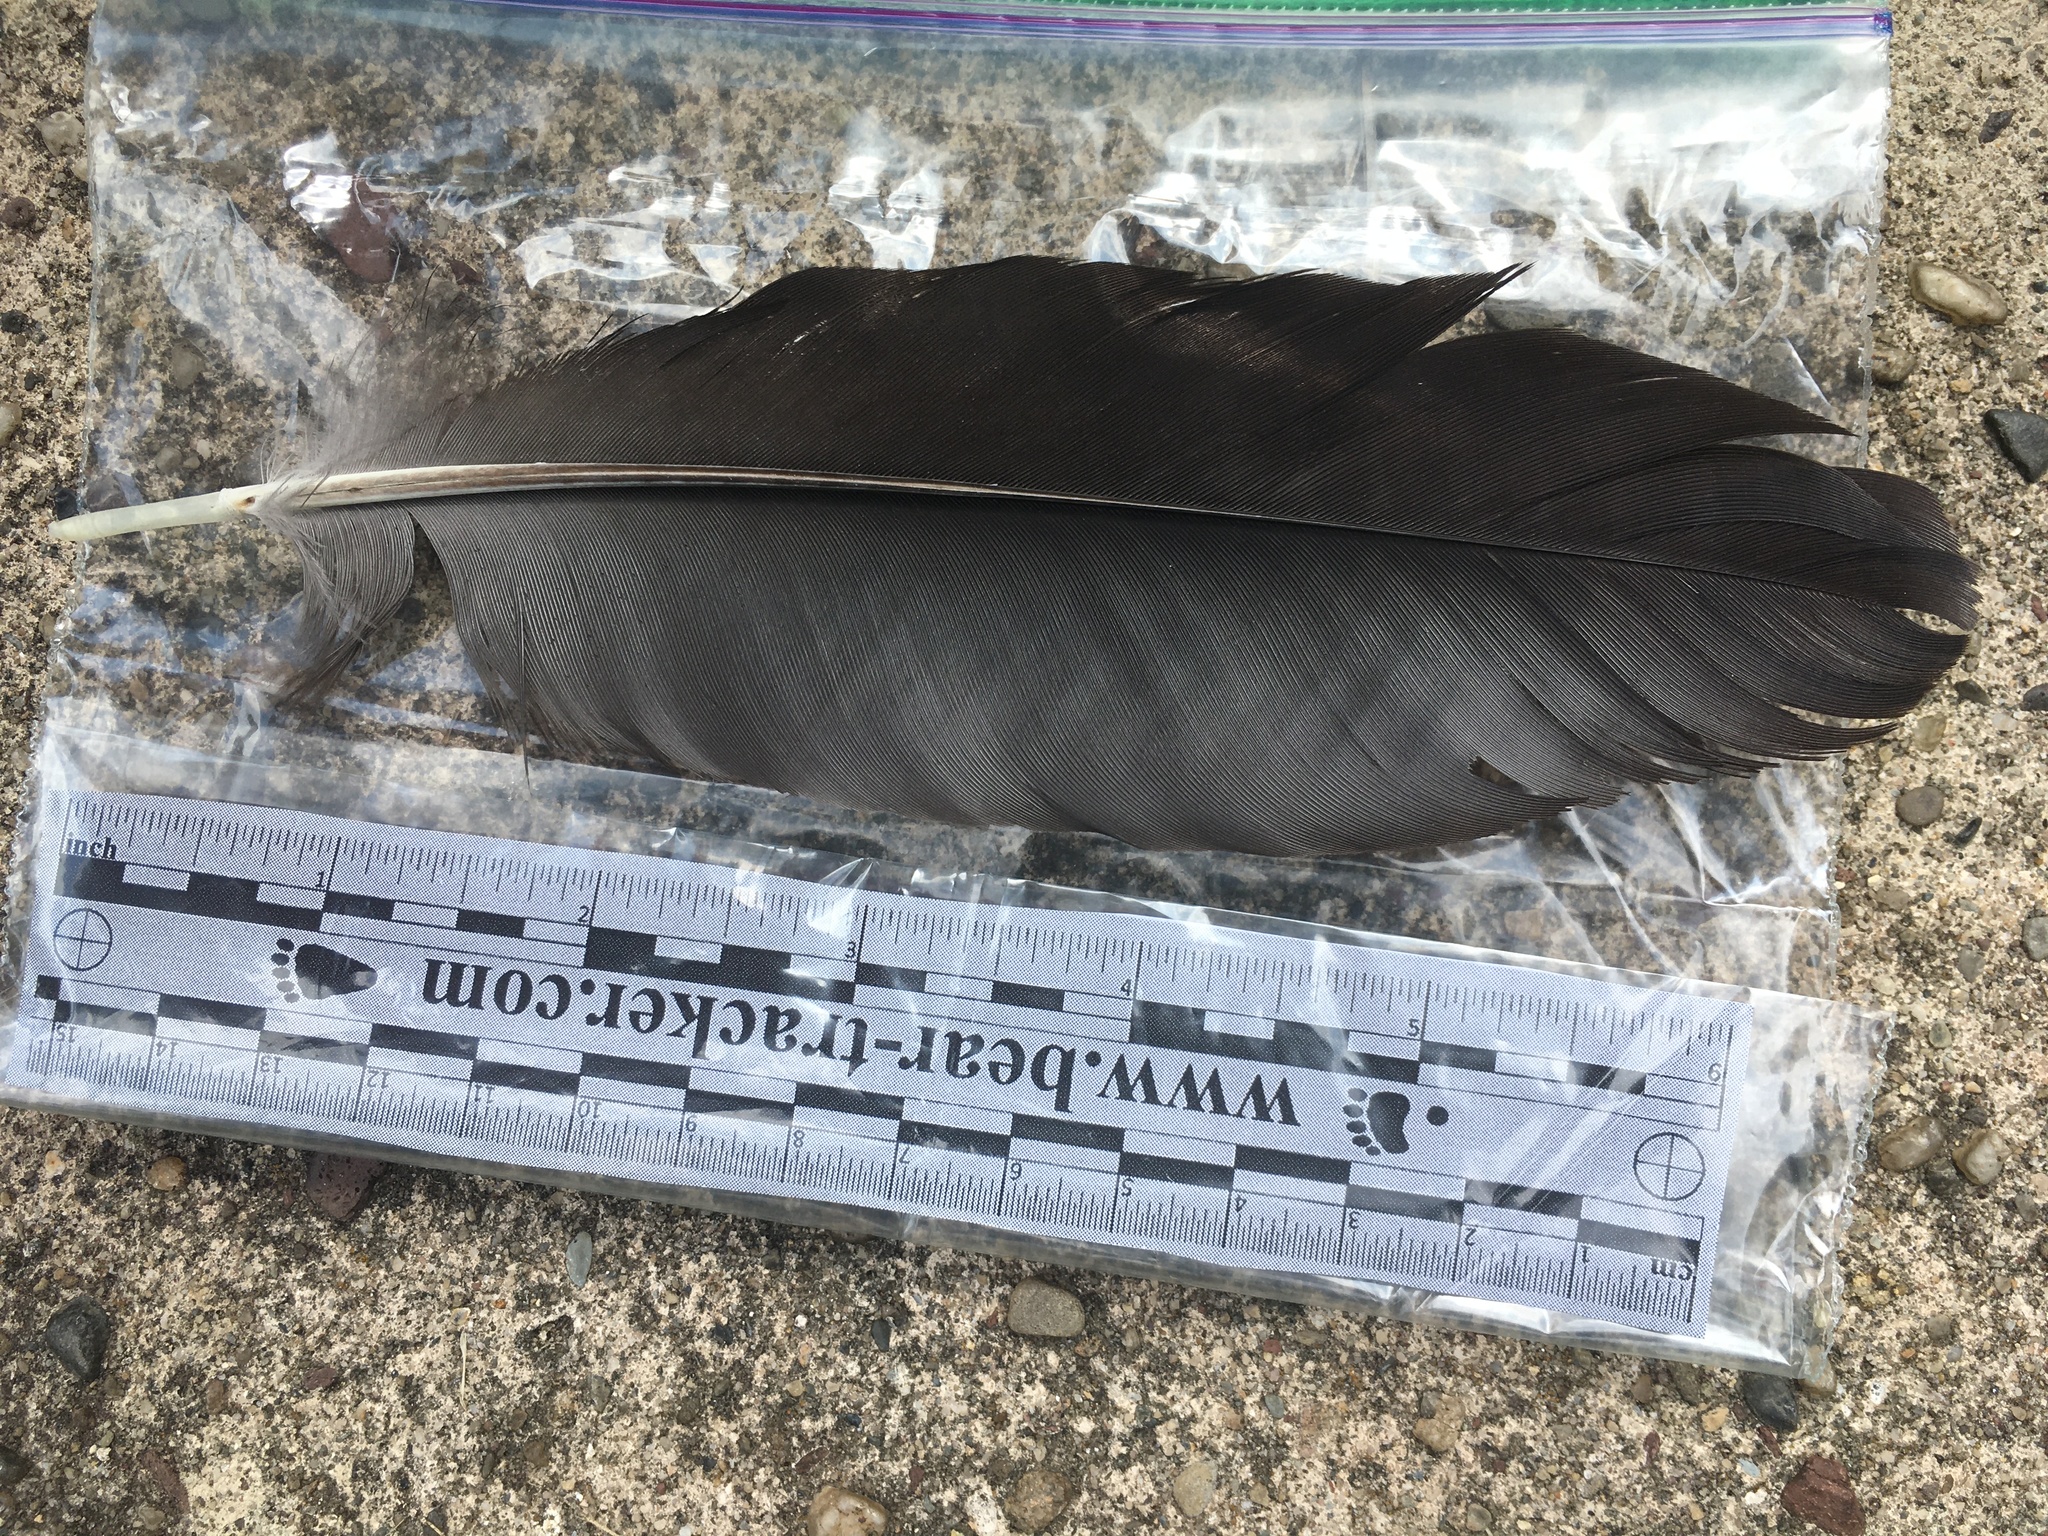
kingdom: Animalia
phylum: Chordata
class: Aves
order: Passeriformes
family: Corvidae
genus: Corvus
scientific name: Corvus corax
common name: Common raven
